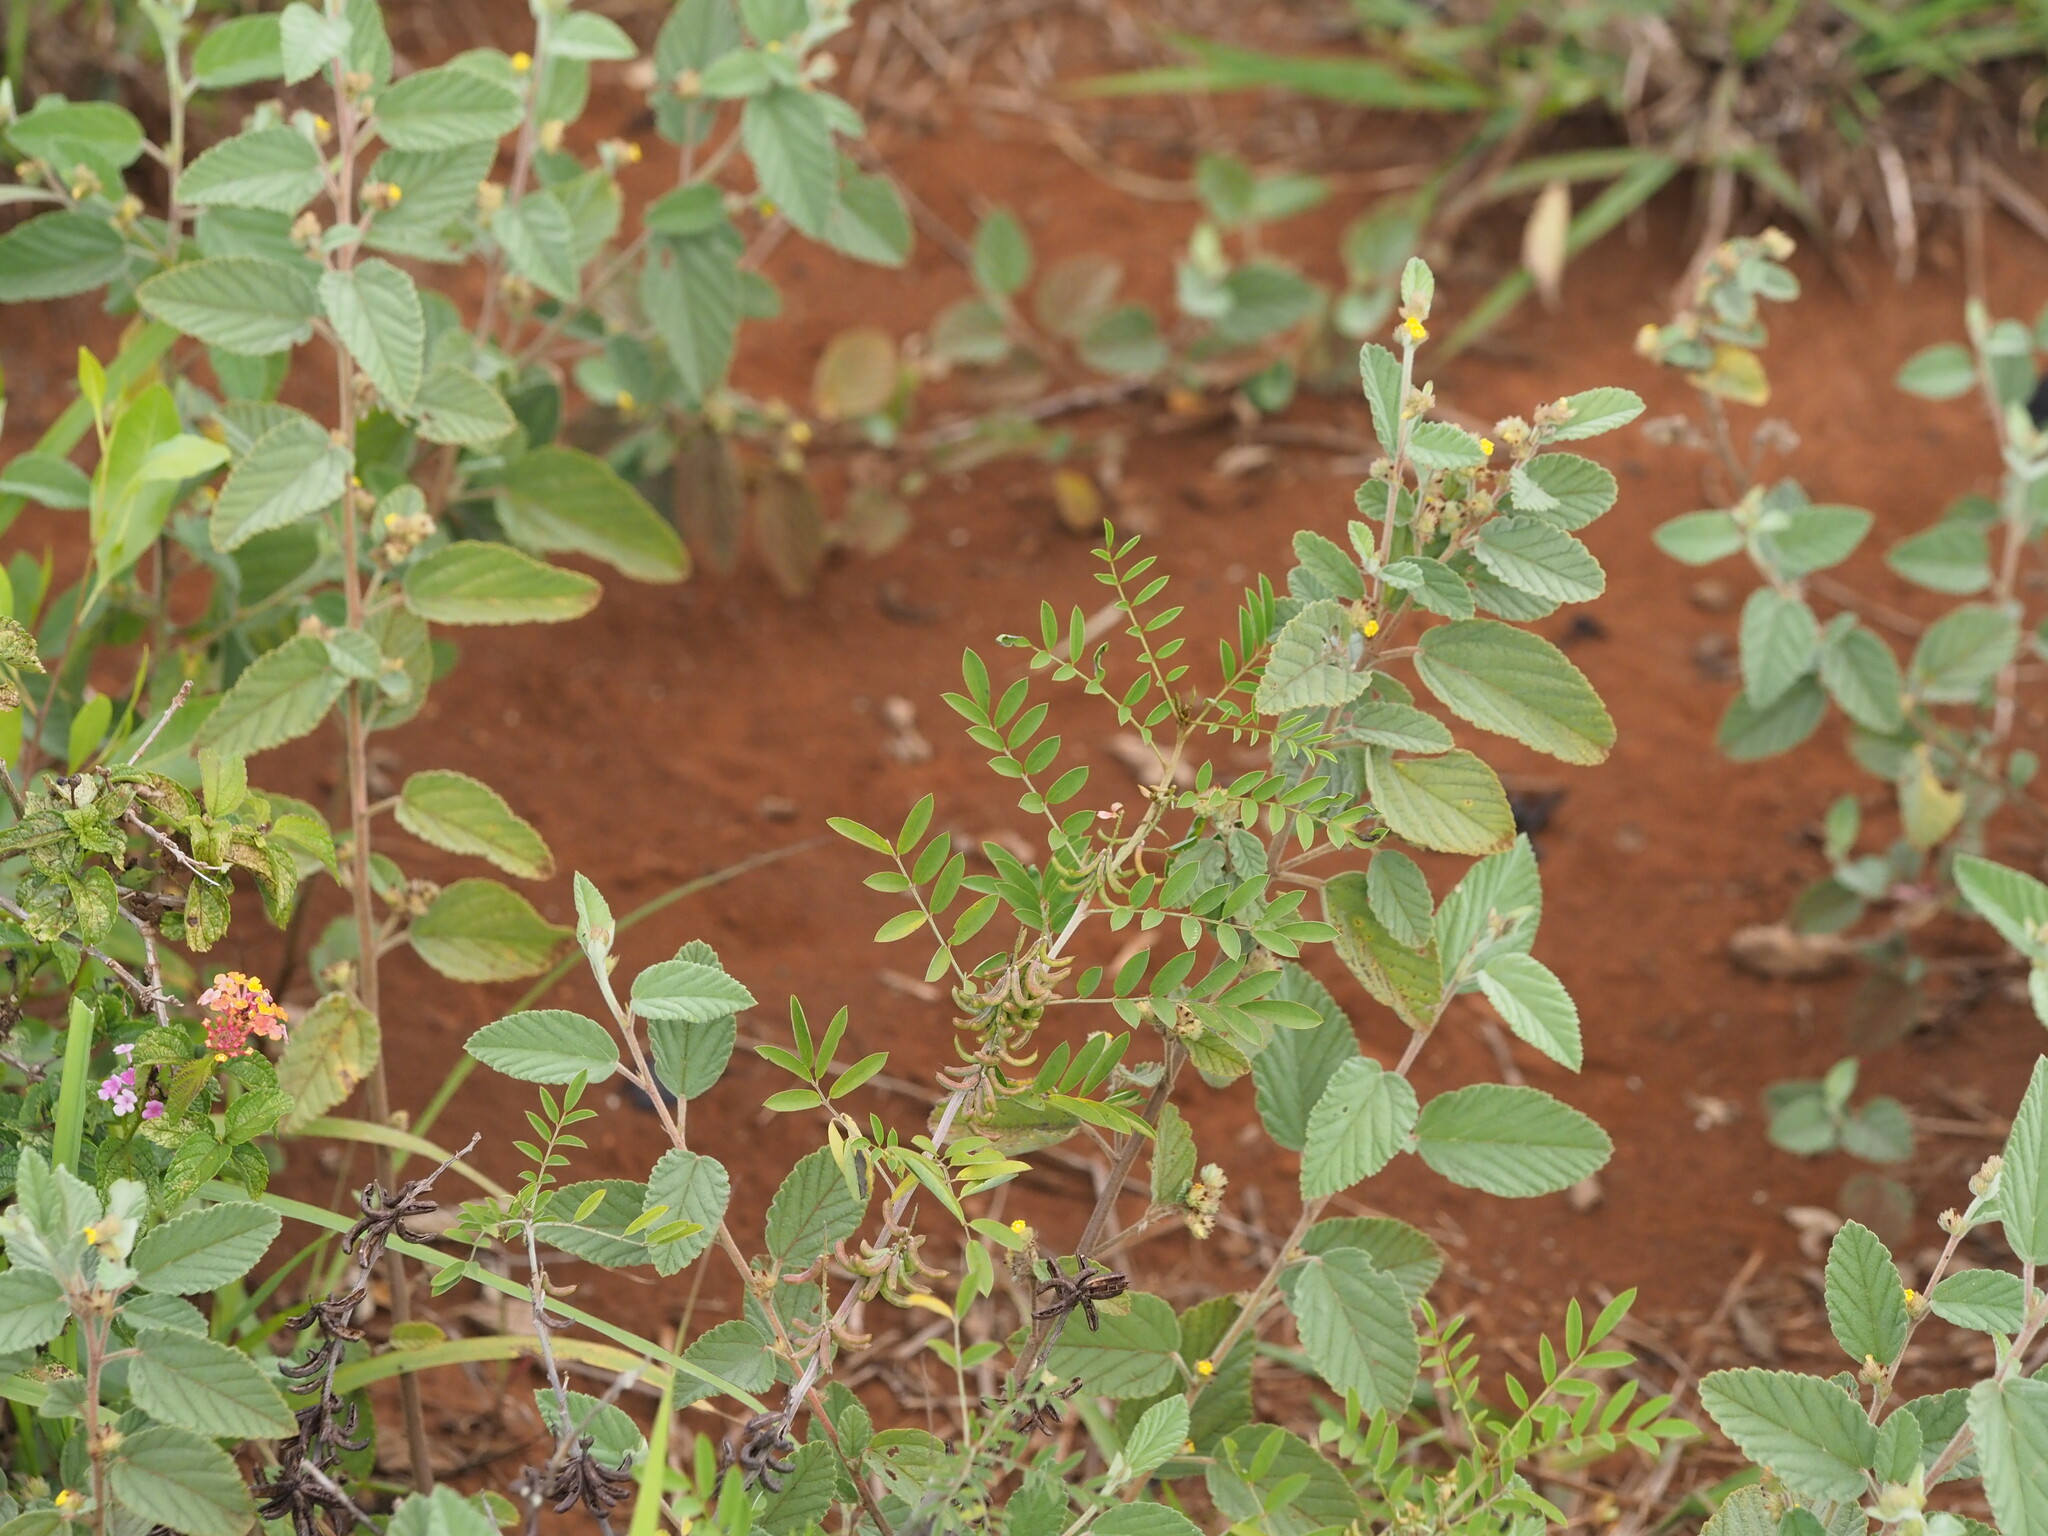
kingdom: Plantae
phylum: Tracheophyta
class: Magnoliopsida
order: Fabales
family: Fabaceae
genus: Indigofera
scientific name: Indigofera suffruticosa
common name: Anil de pasto
